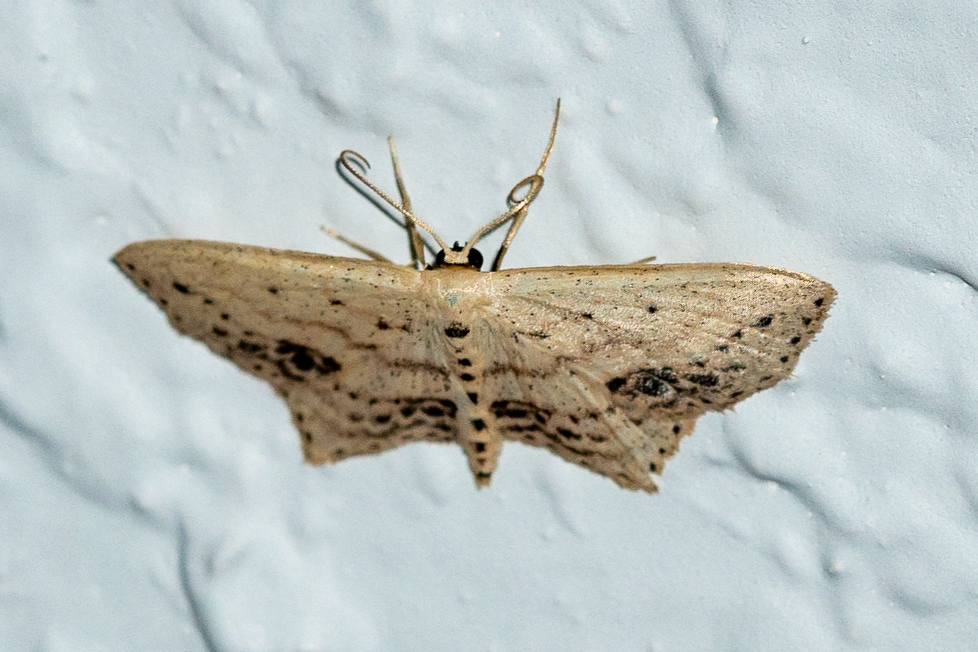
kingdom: Animalia
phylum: Arthropoda
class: Insecta
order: Lepidoptera
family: Geometridae
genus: Scopula
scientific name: Scopula cacuminaria
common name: Frosted tan wave
